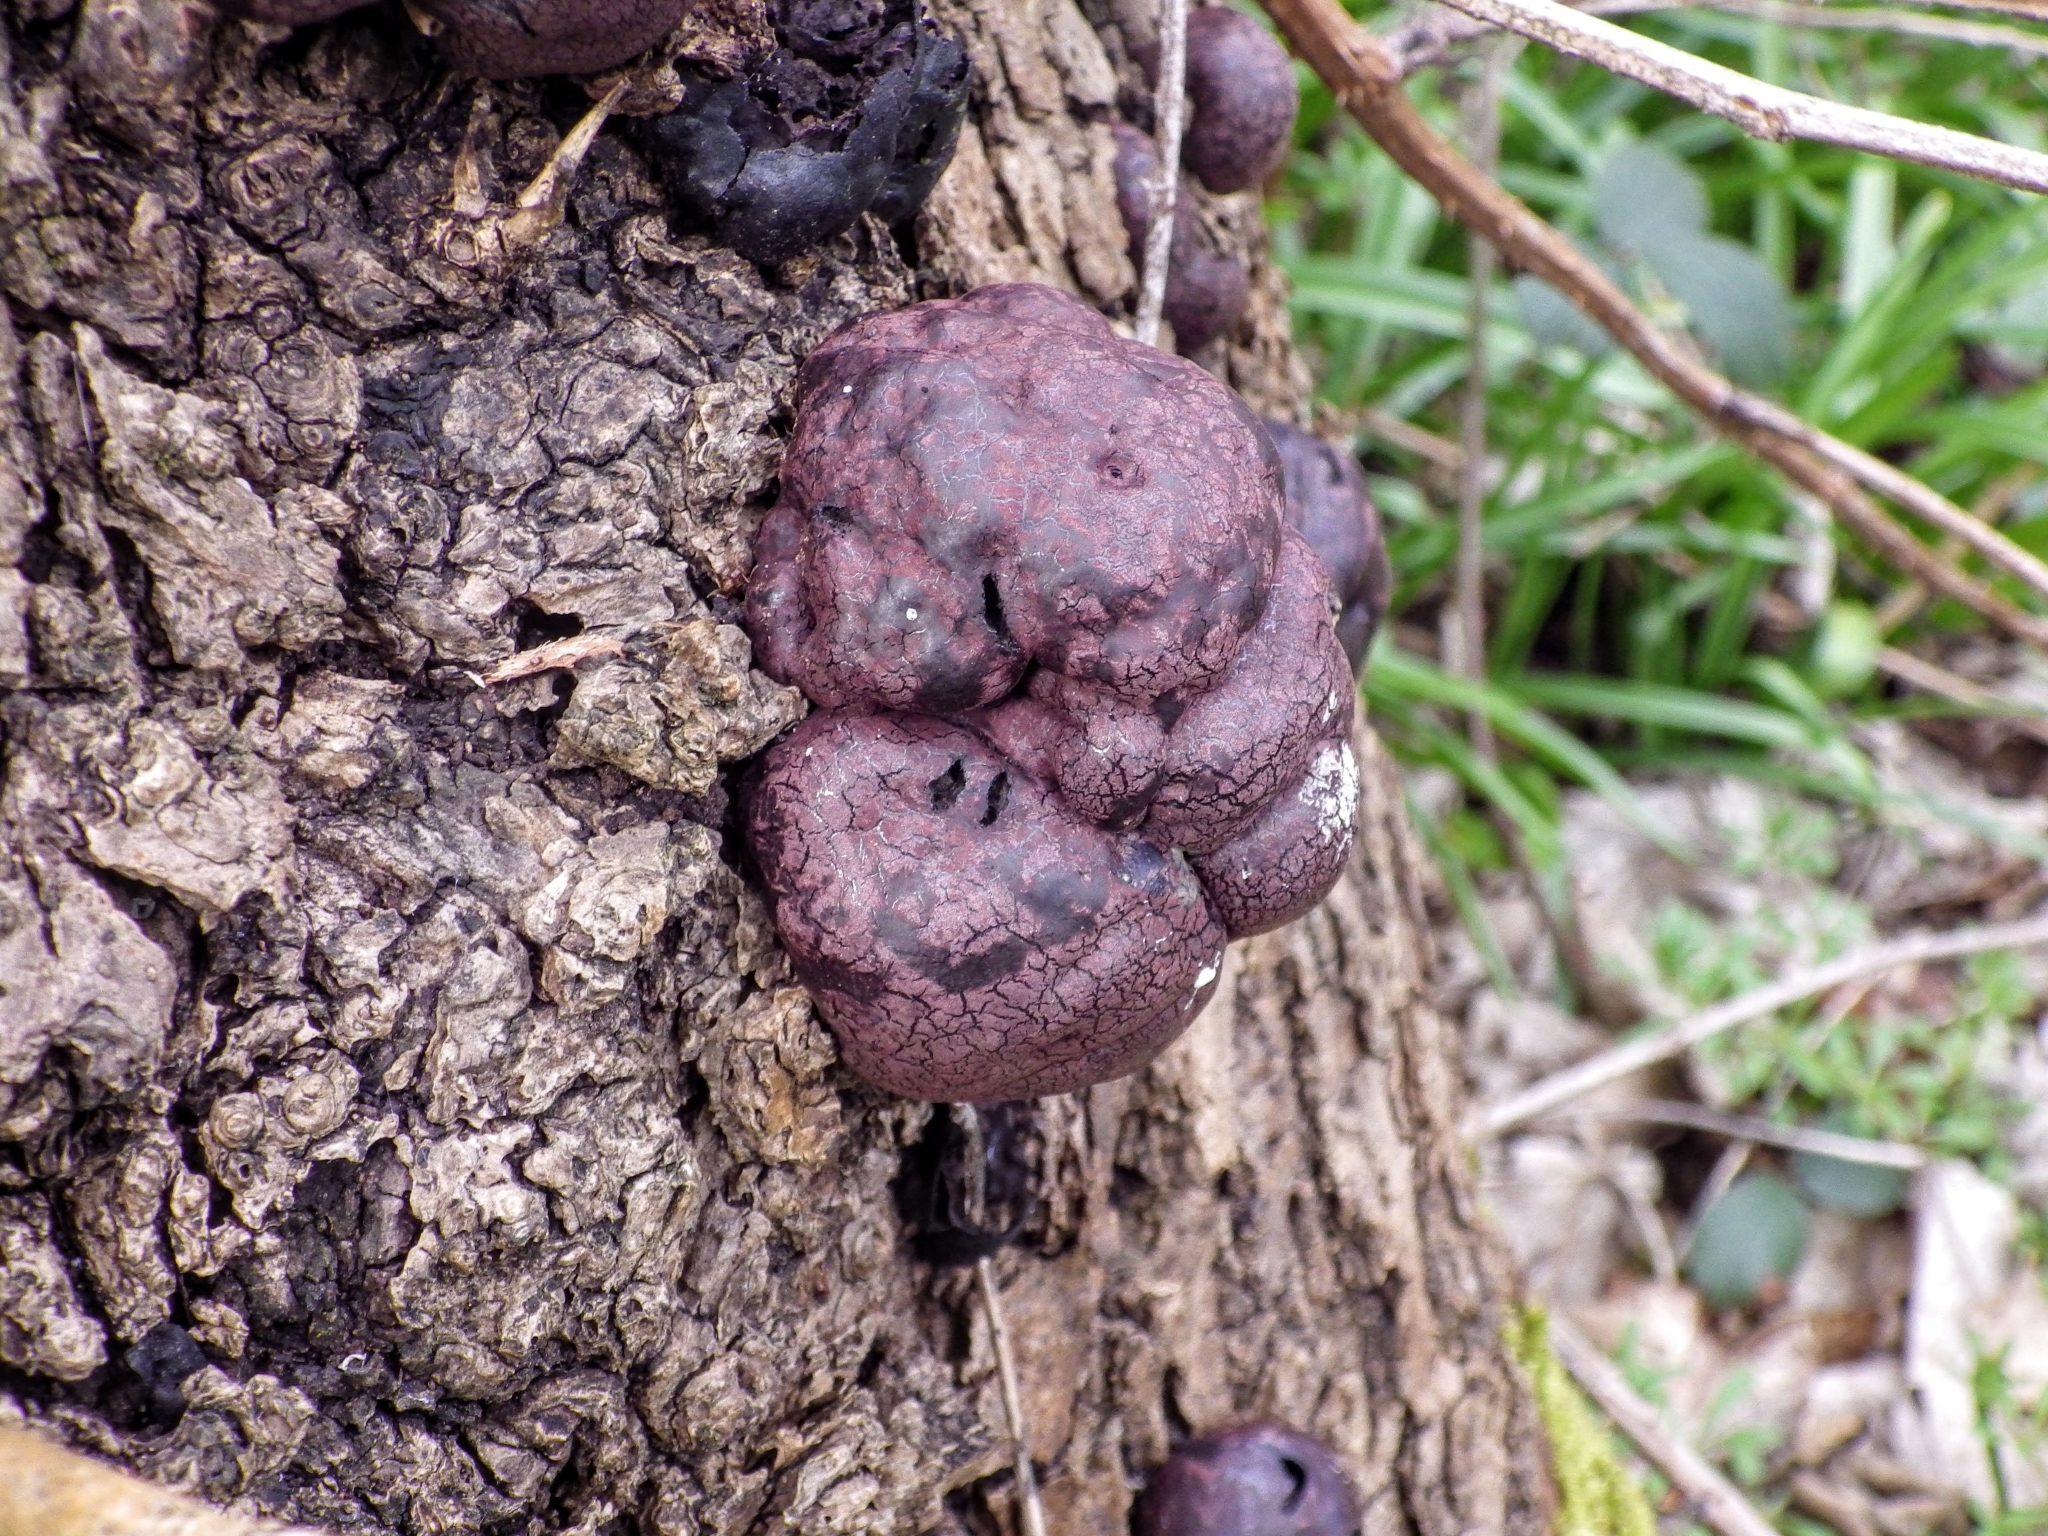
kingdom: Fungi
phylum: Ascomycota
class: Sordariomycetes
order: Xylariales
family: Hypoxylaceae
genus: Daldinia
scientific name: Daldinia concentrica
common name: Cramp balls
